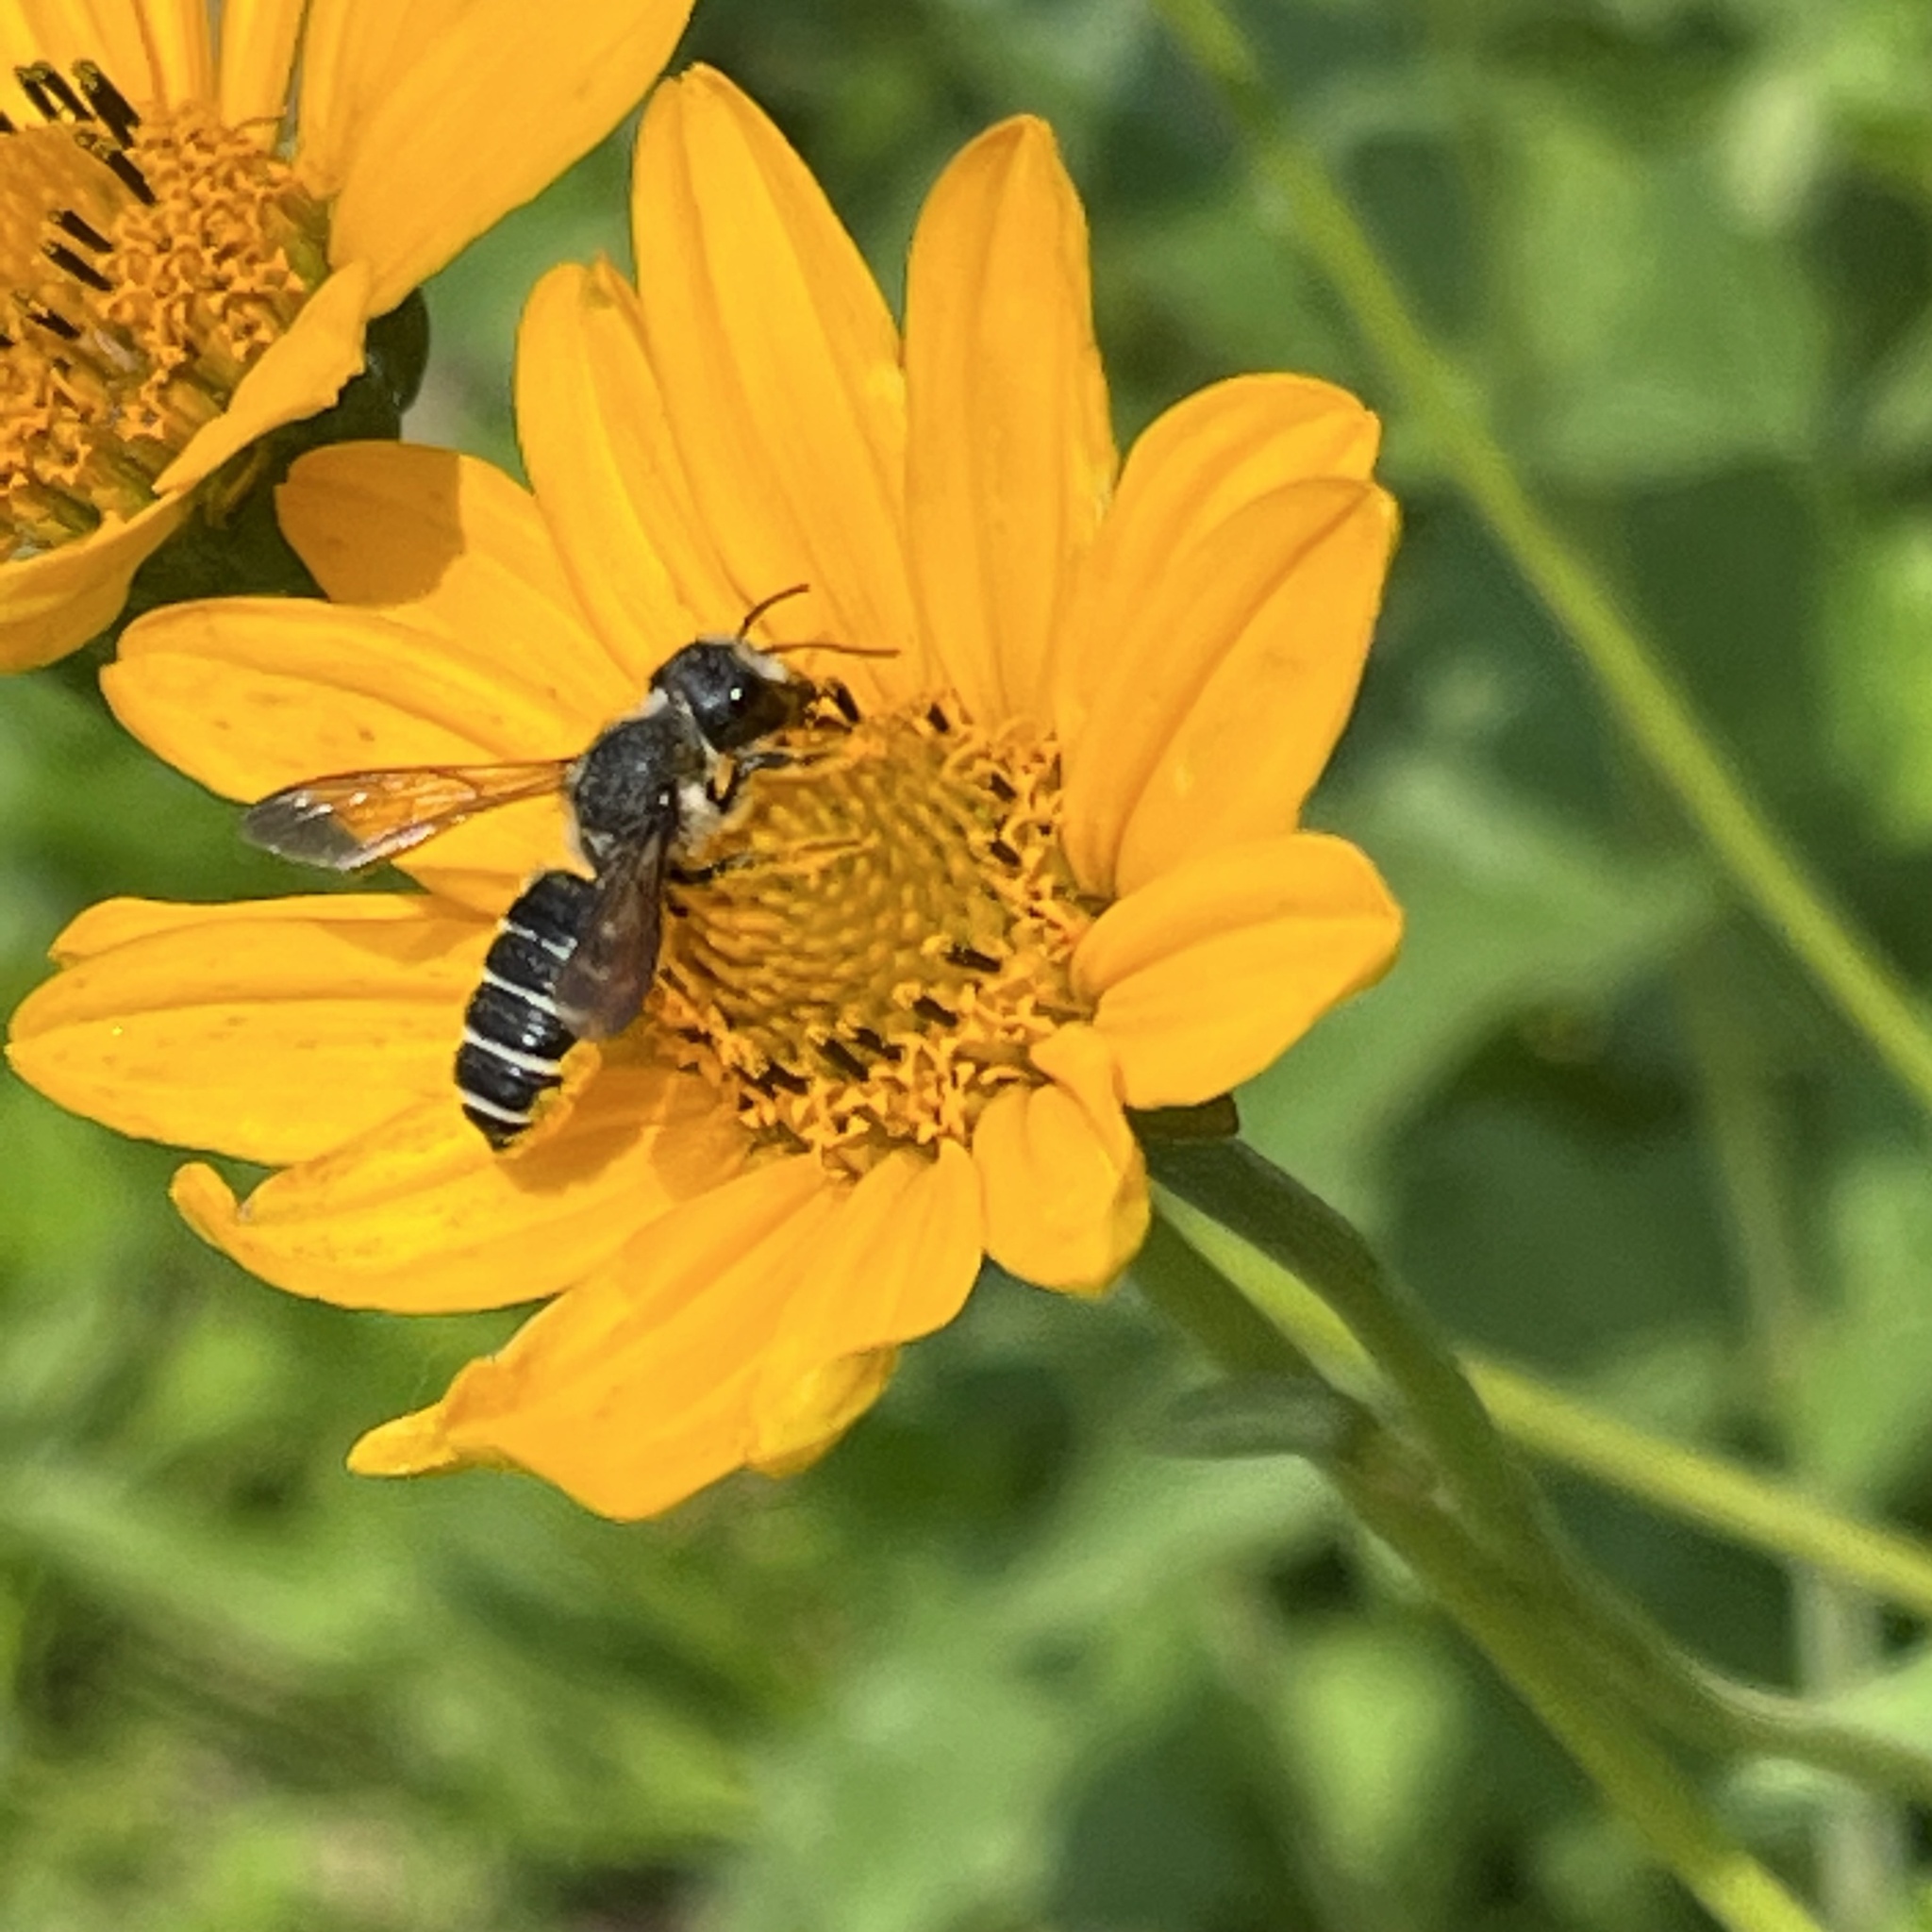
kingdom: Animalia
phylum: Arthropoda
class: Insecta
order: Hymenoptera
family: Megachilidae
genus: Megachile
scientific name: Megachile pugnata
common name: Pugnacious leafcutter bee
